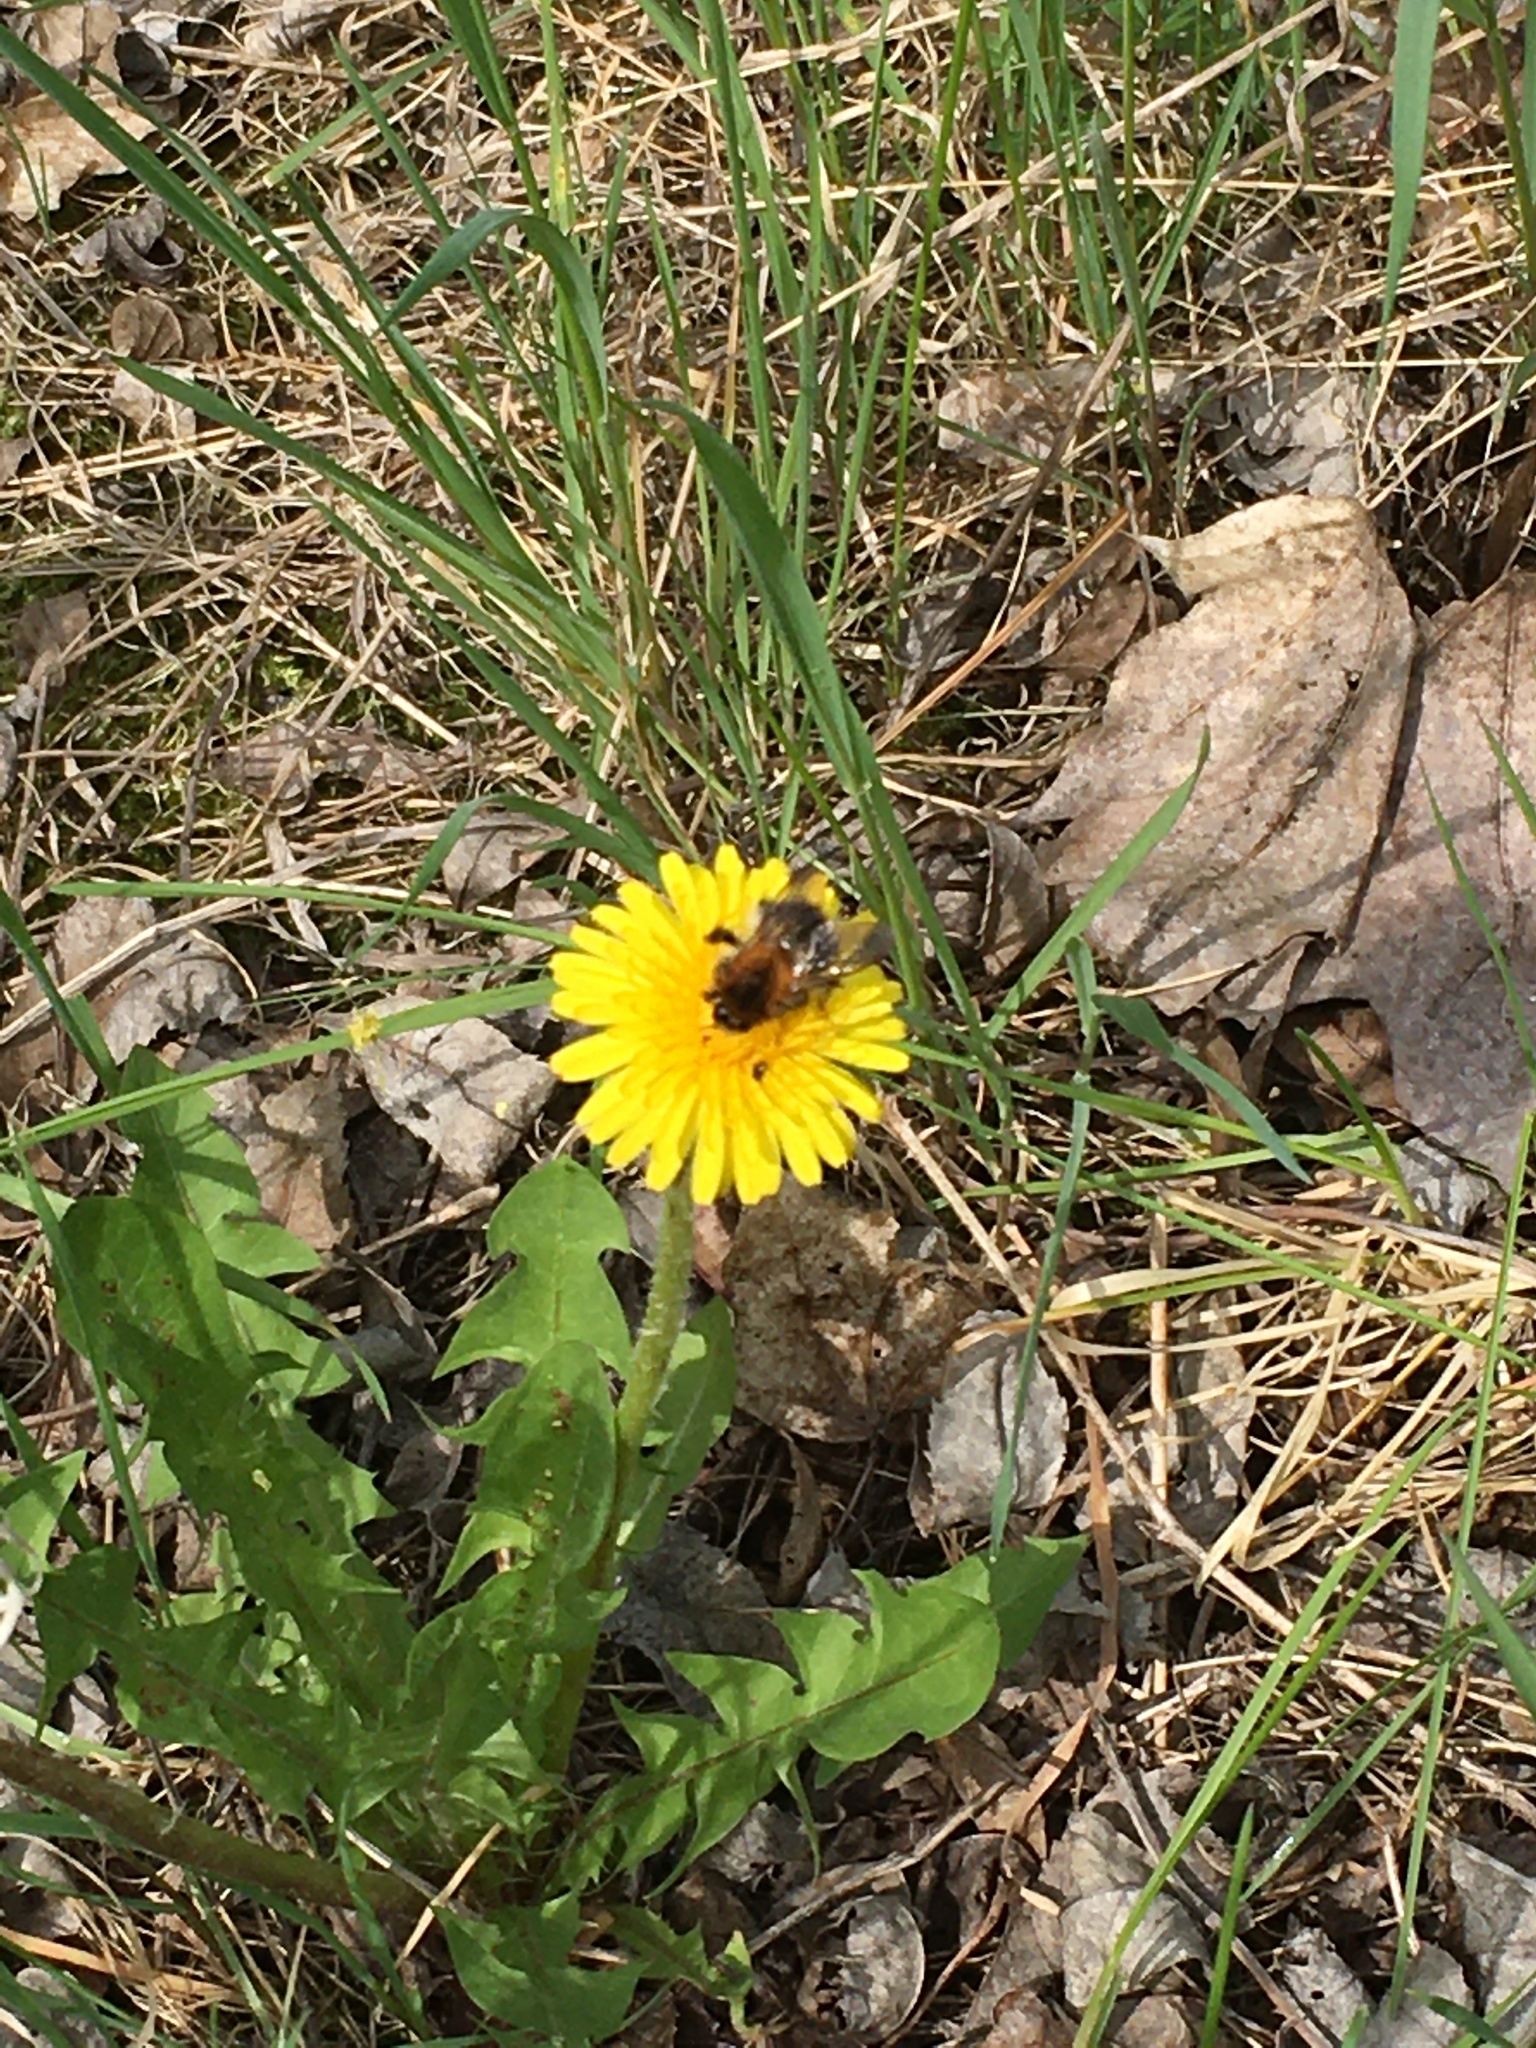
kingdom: Animalia
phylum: Arthropoda
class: Insecta
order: Hymenoptera
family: Apidae
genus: Bombus
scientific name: Bombus pascuorum
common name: Common carder bee
